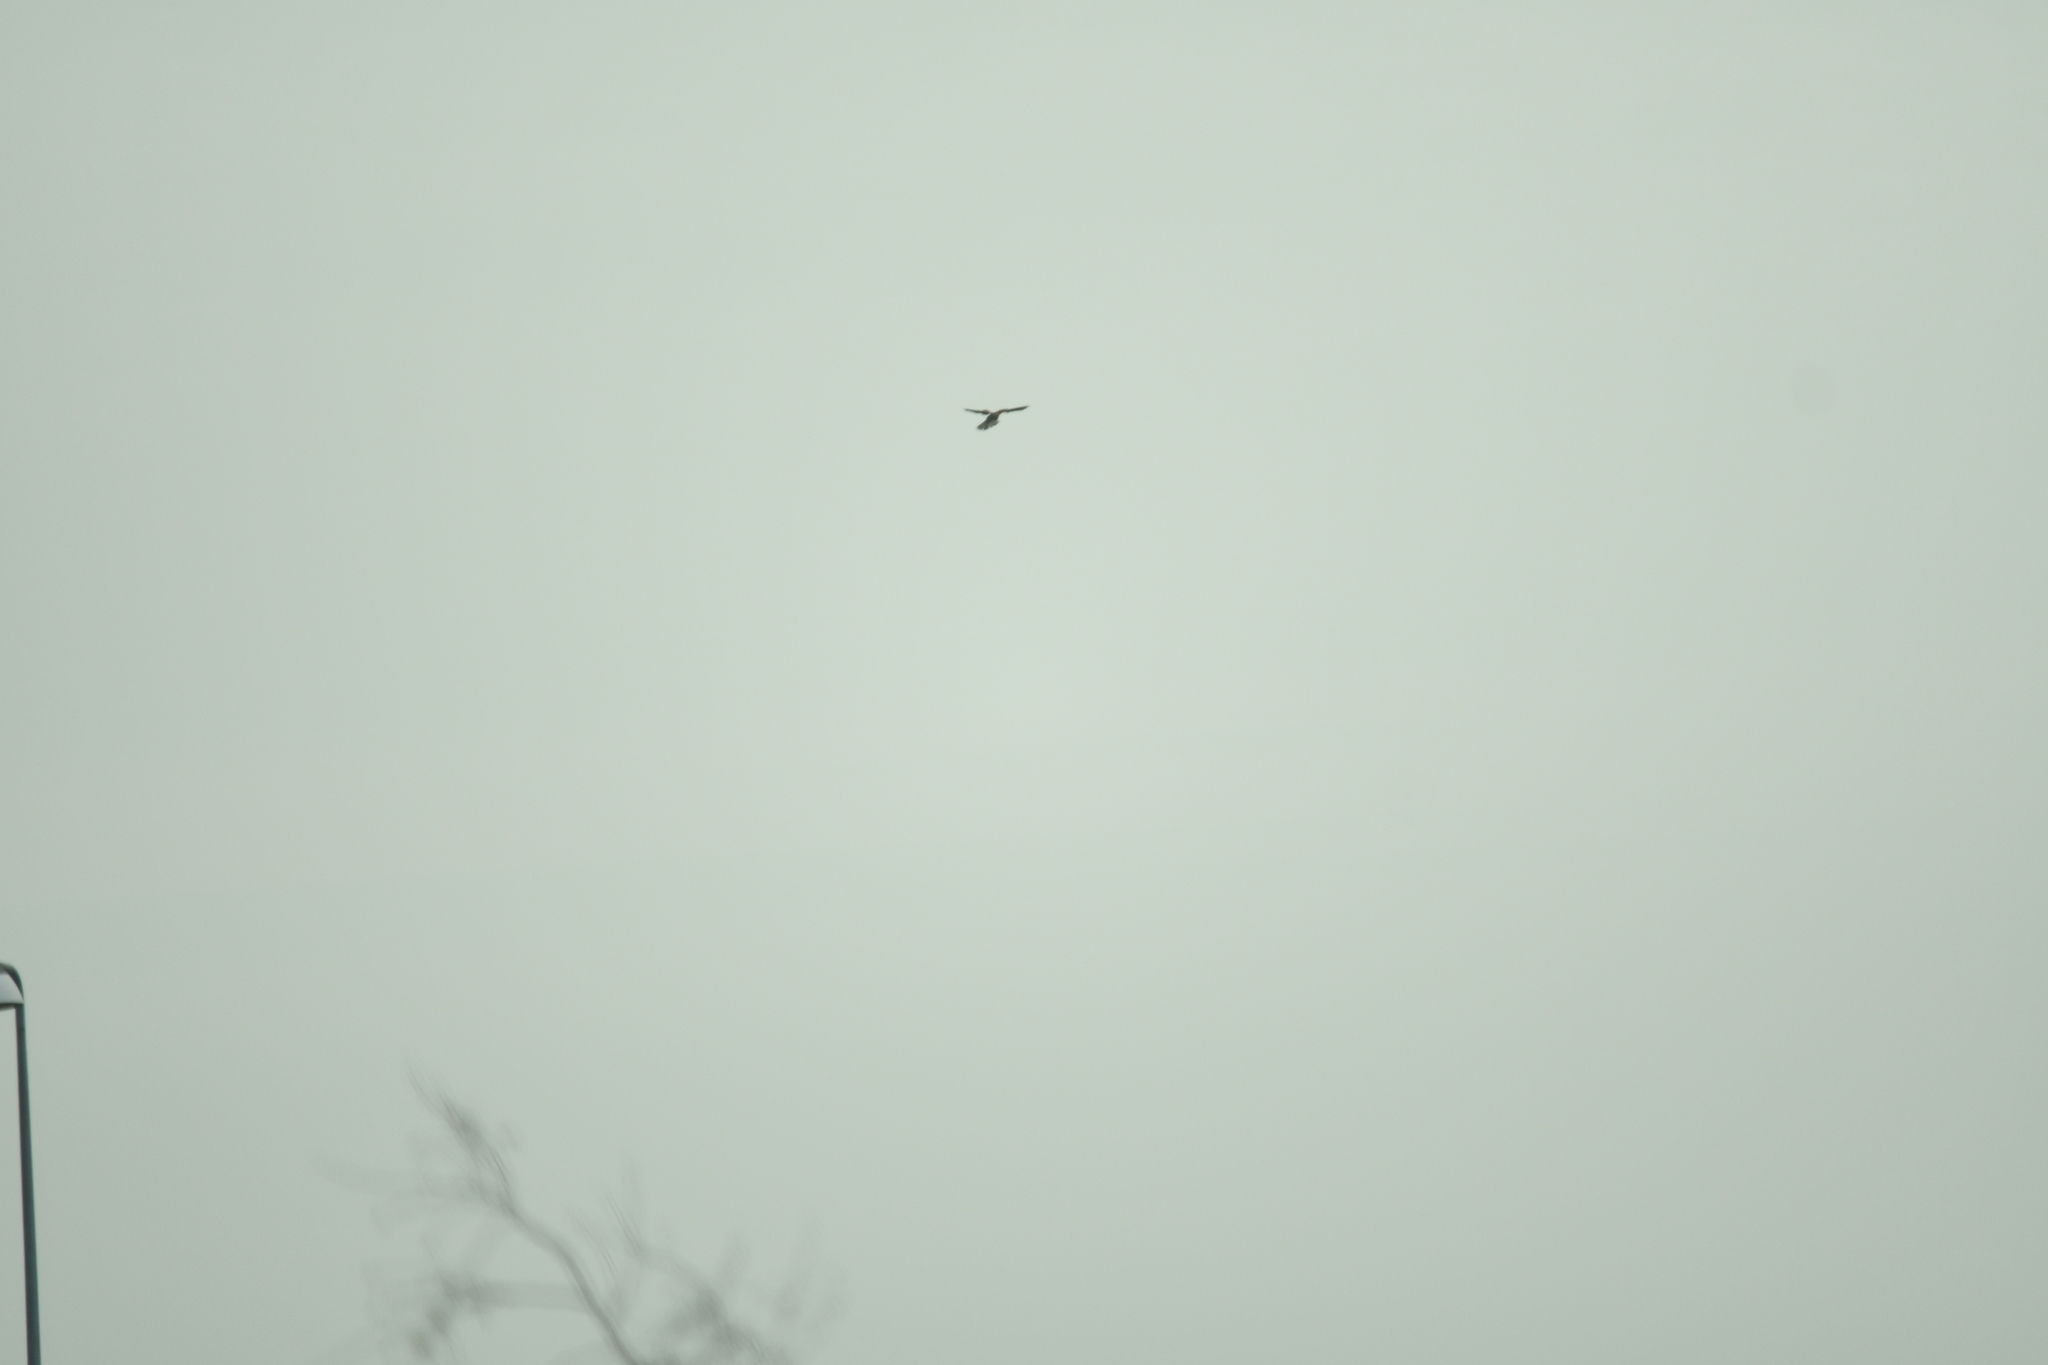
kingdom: Animalia
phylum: Chordata
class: Aves
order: Falconiformes
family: Falconidae
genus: Falco
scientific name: Falco tinnunculus
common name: Common kestrel
